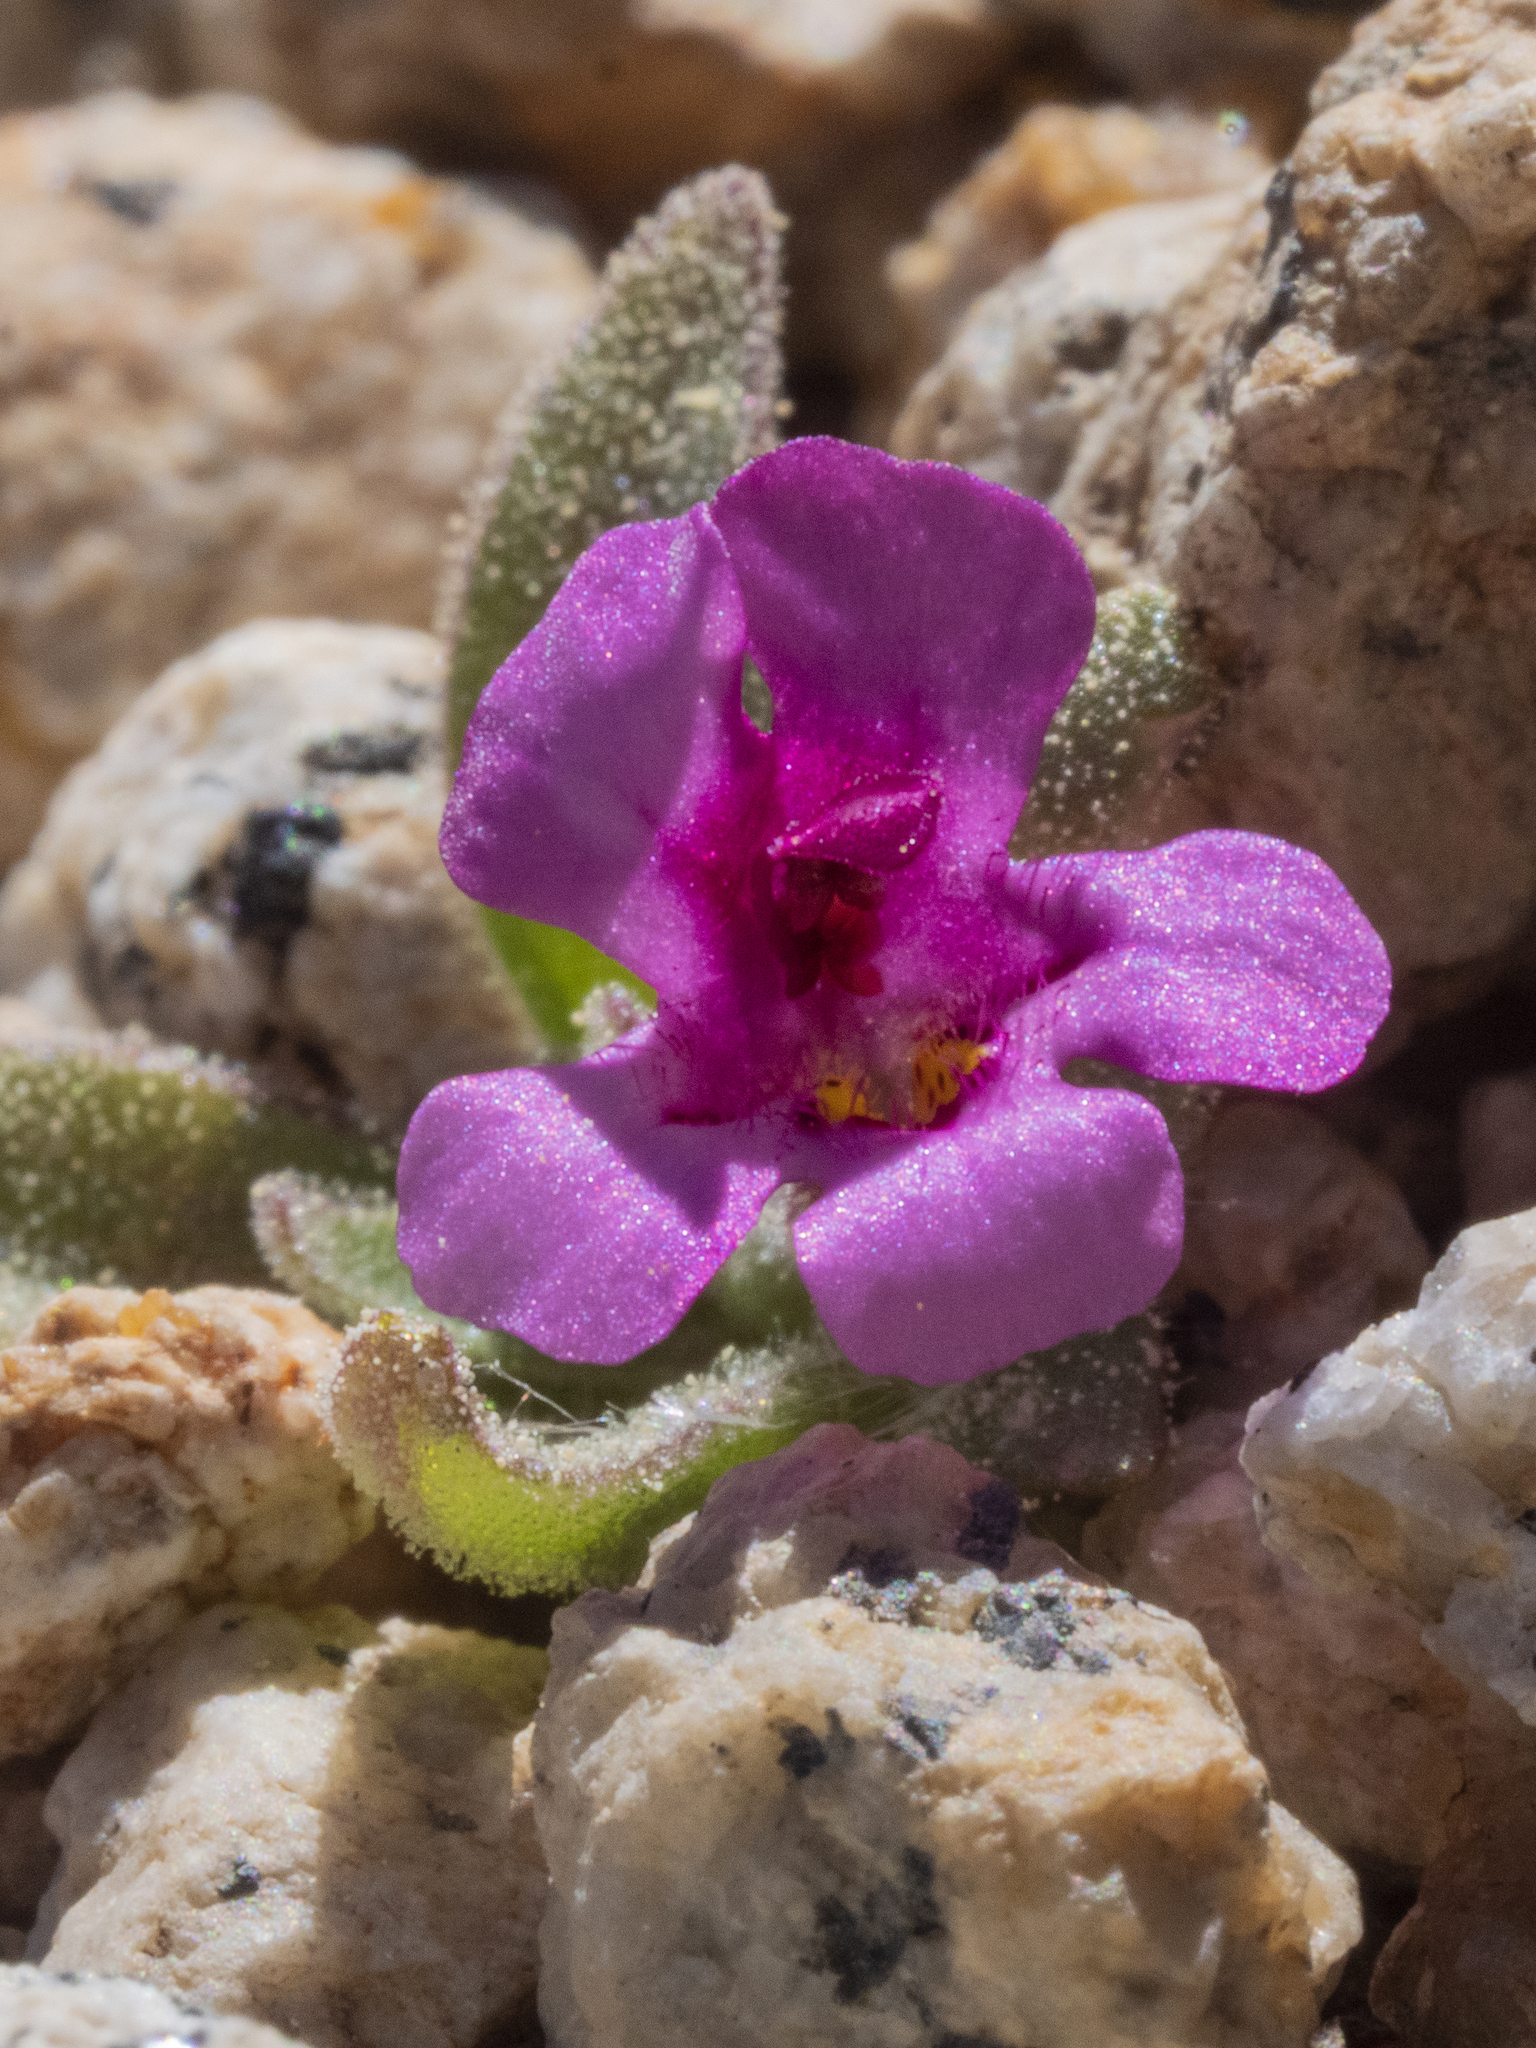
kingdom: Plantae
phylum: Tracheophyta
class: Magnoliopsida
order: Lamiales
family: Phrymaceae
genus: Diplacus
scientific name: Diplacus mephiticus
